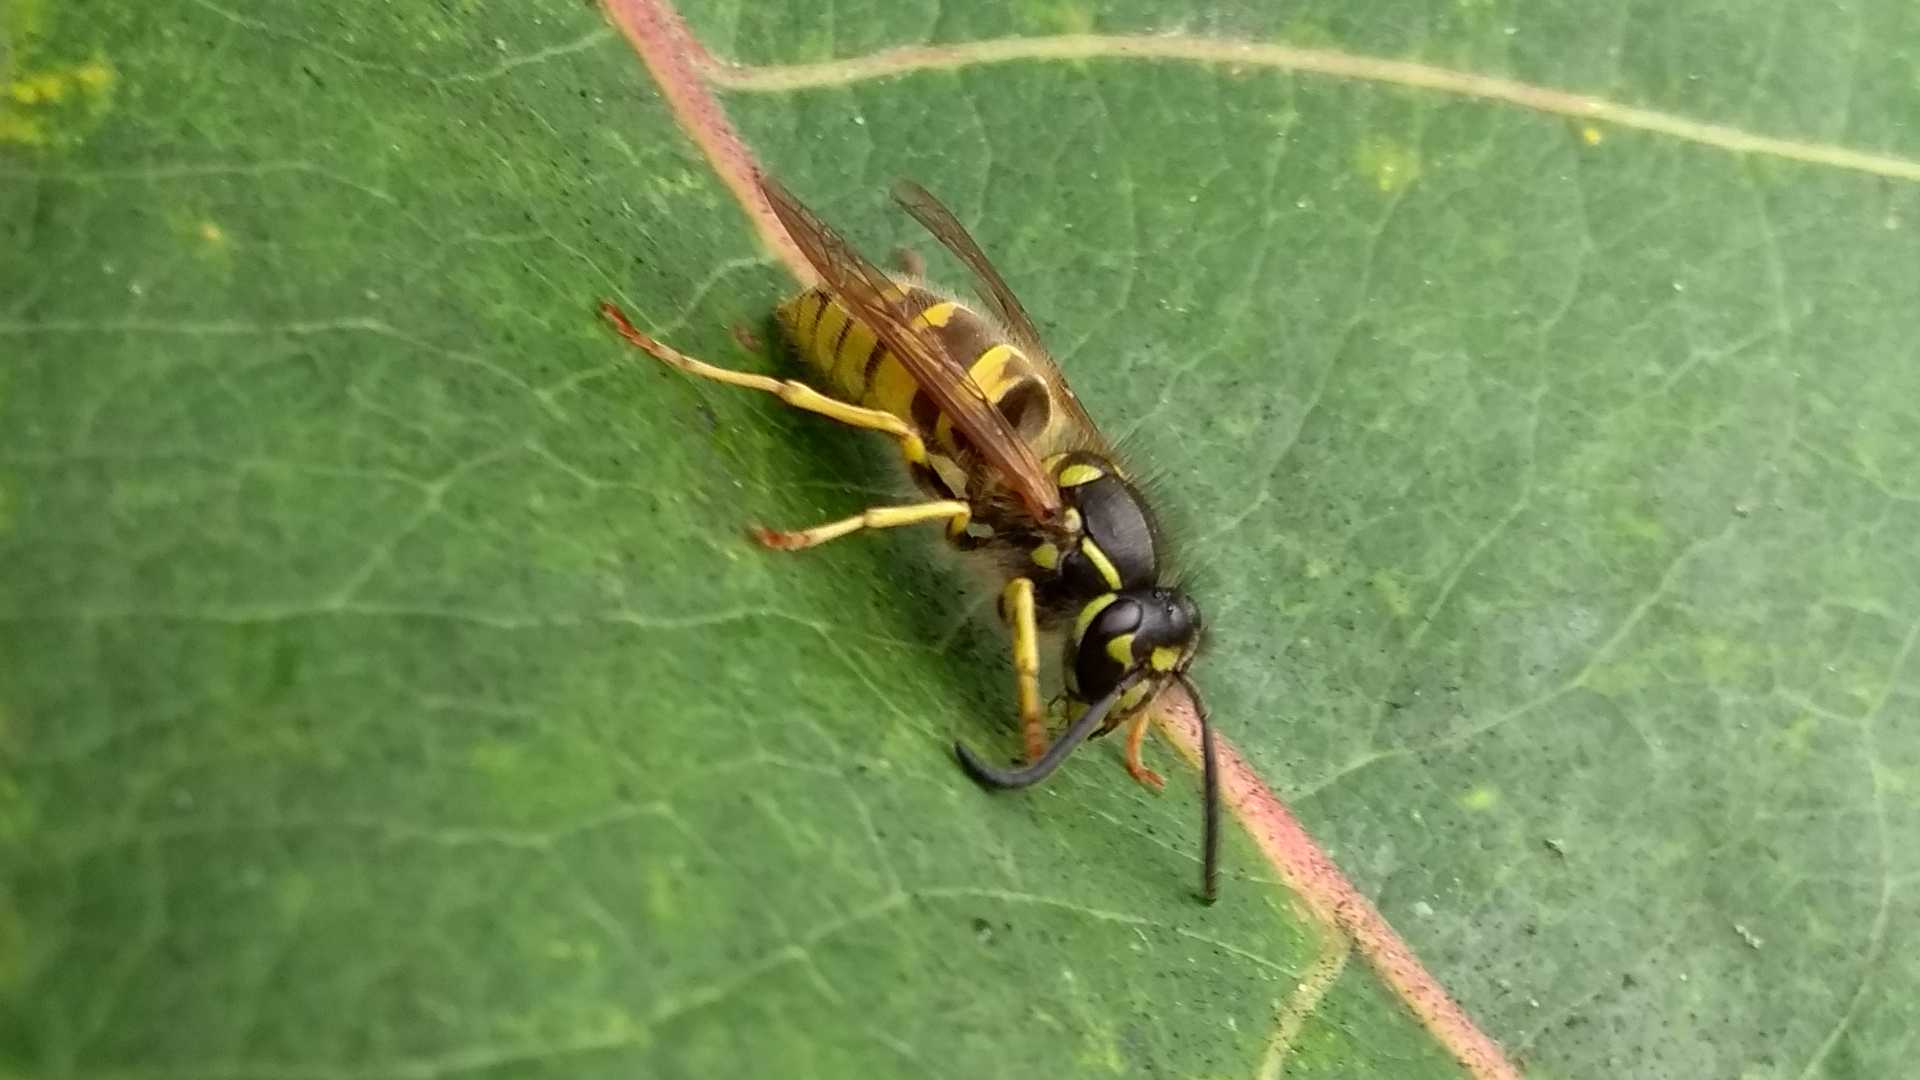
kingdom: Animalia
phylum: Arthropoda
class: Insecta
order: Hymenoptera
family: Vespidae
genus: Vespula
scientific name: Vespula vulgaris
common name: Common wasp
